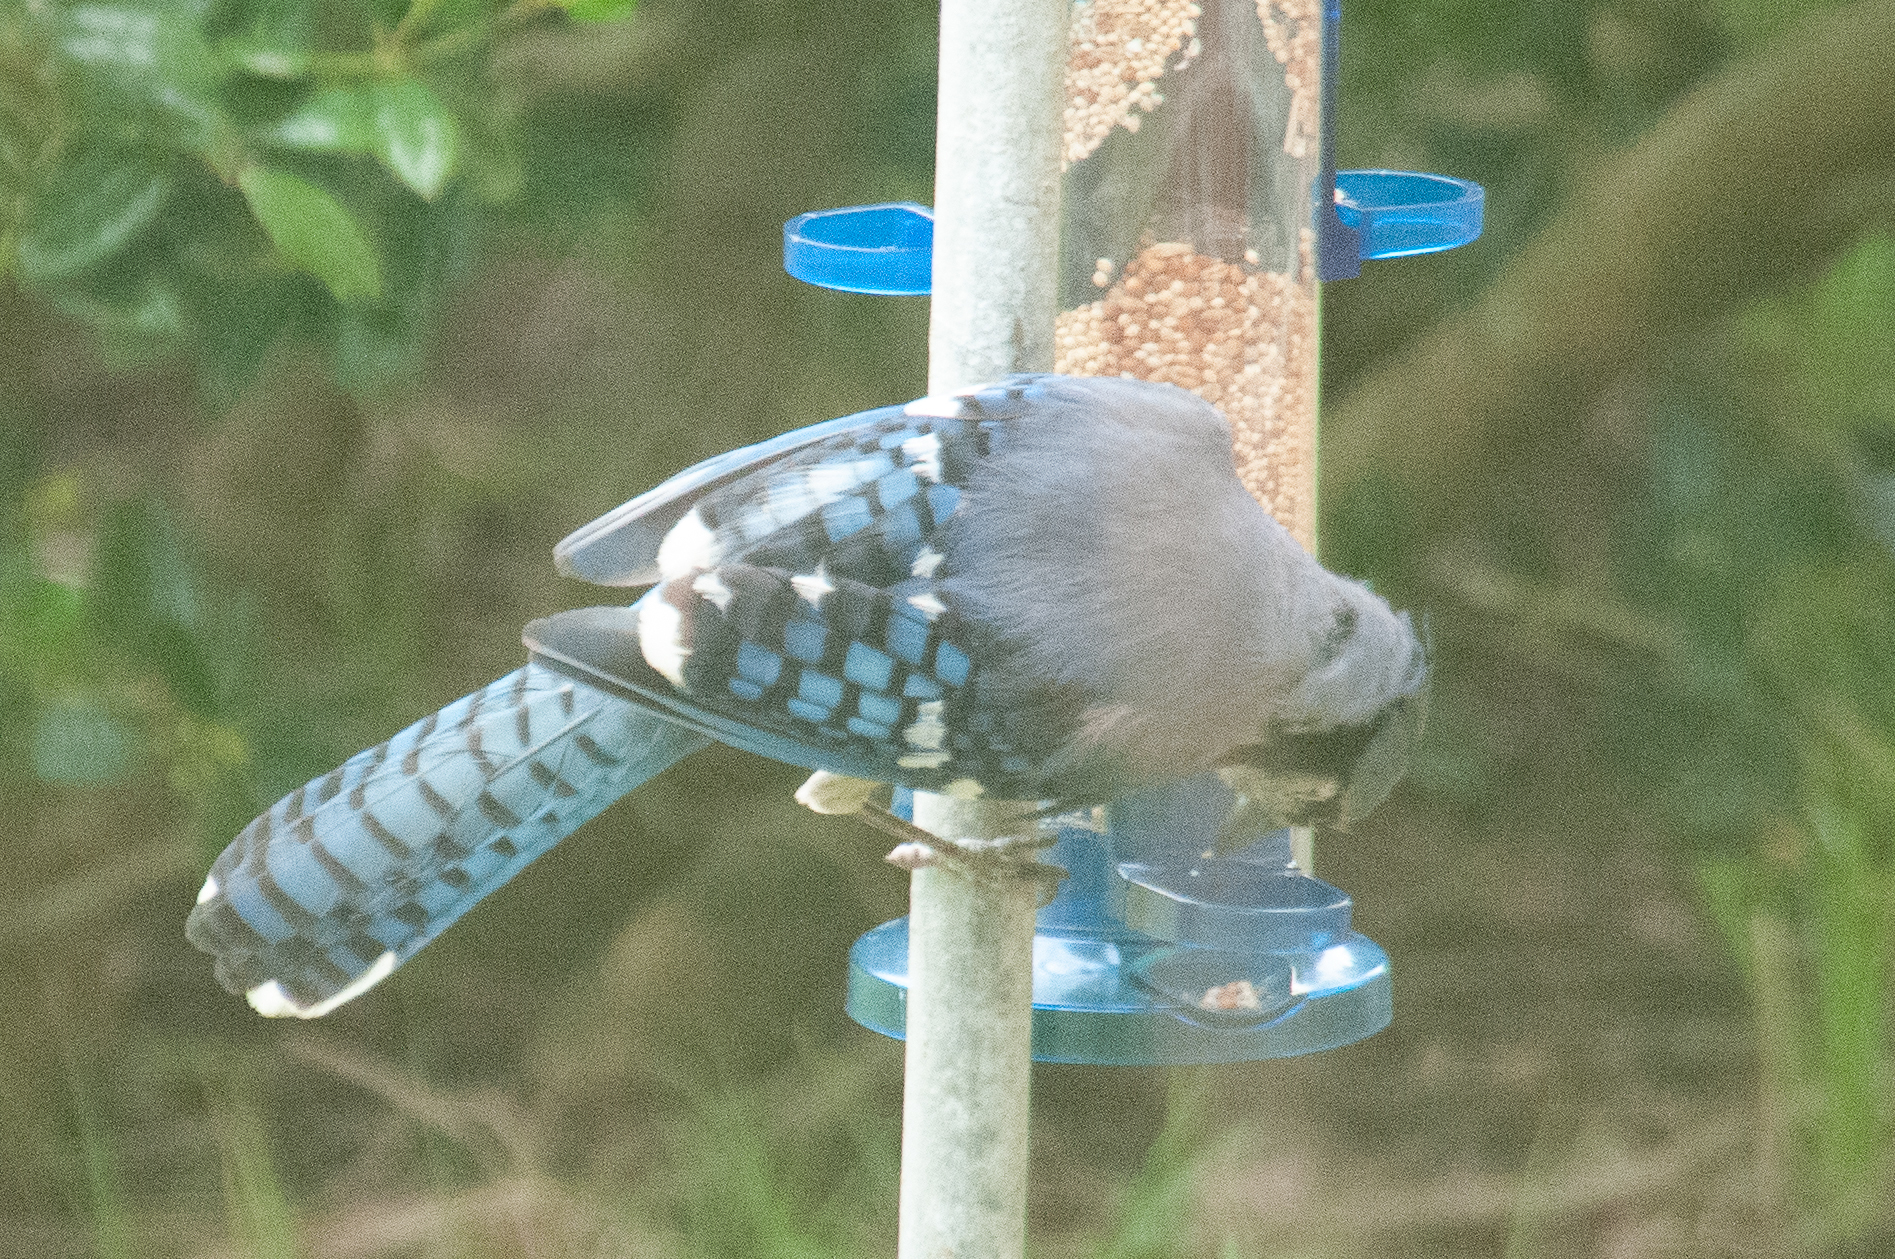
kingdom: Animalia
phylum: Chordata
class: Aves
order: Passeriformes
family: Corvidae
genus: Cyanocitta
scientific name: Cyanocitta cristata
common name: Blue jay
